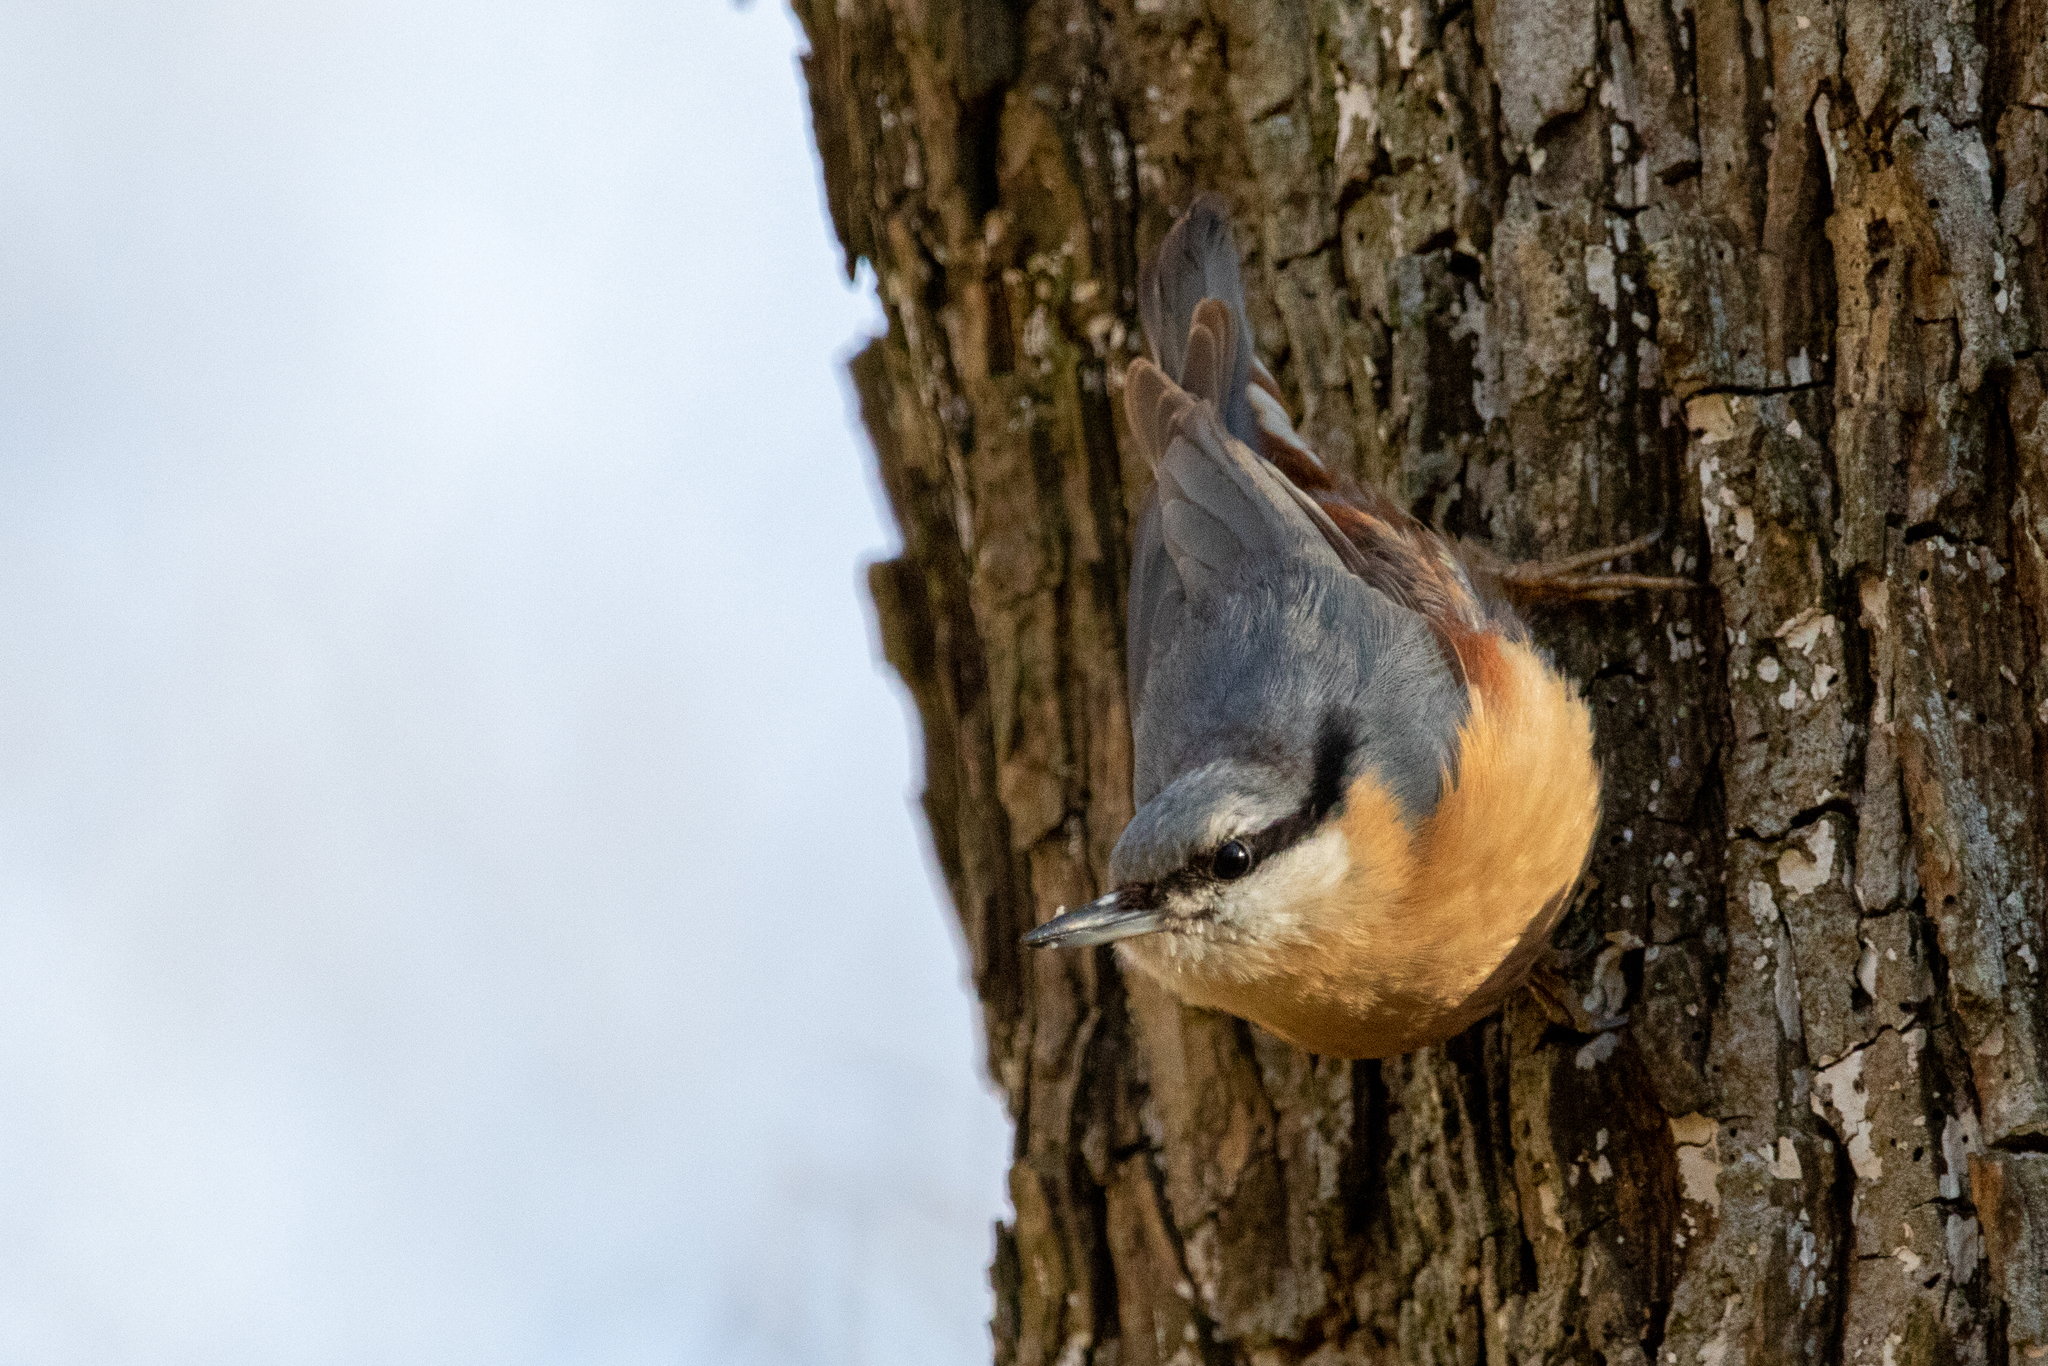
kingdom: Animalia
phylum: Chordata
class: Aves
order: Passeriformes
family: Sittidae
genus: Sitta
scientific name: Sitta europaea
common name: Eurasian nuthatch
